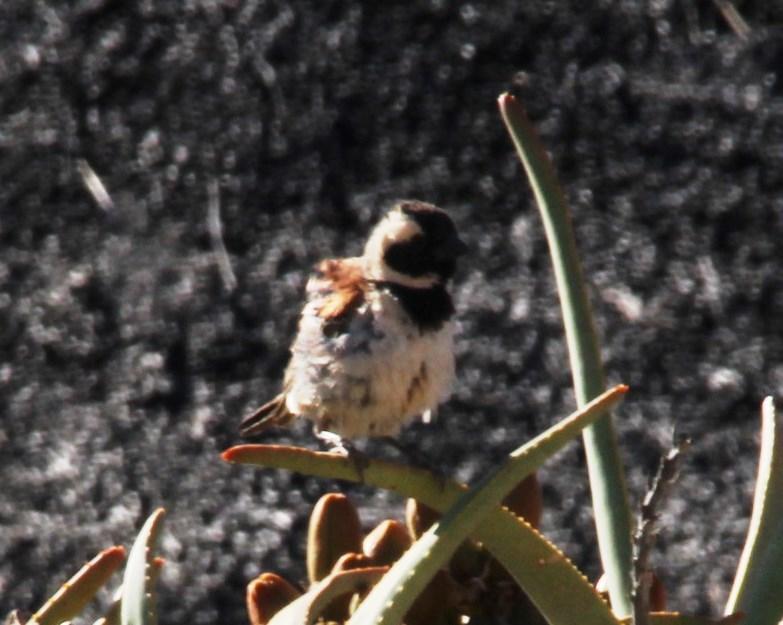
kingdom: Animalia
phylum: Chordata
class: Aves
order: Passeriformes
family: Passeridae
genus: Passer
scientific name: Passer melanurus
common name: Cape sparrow
